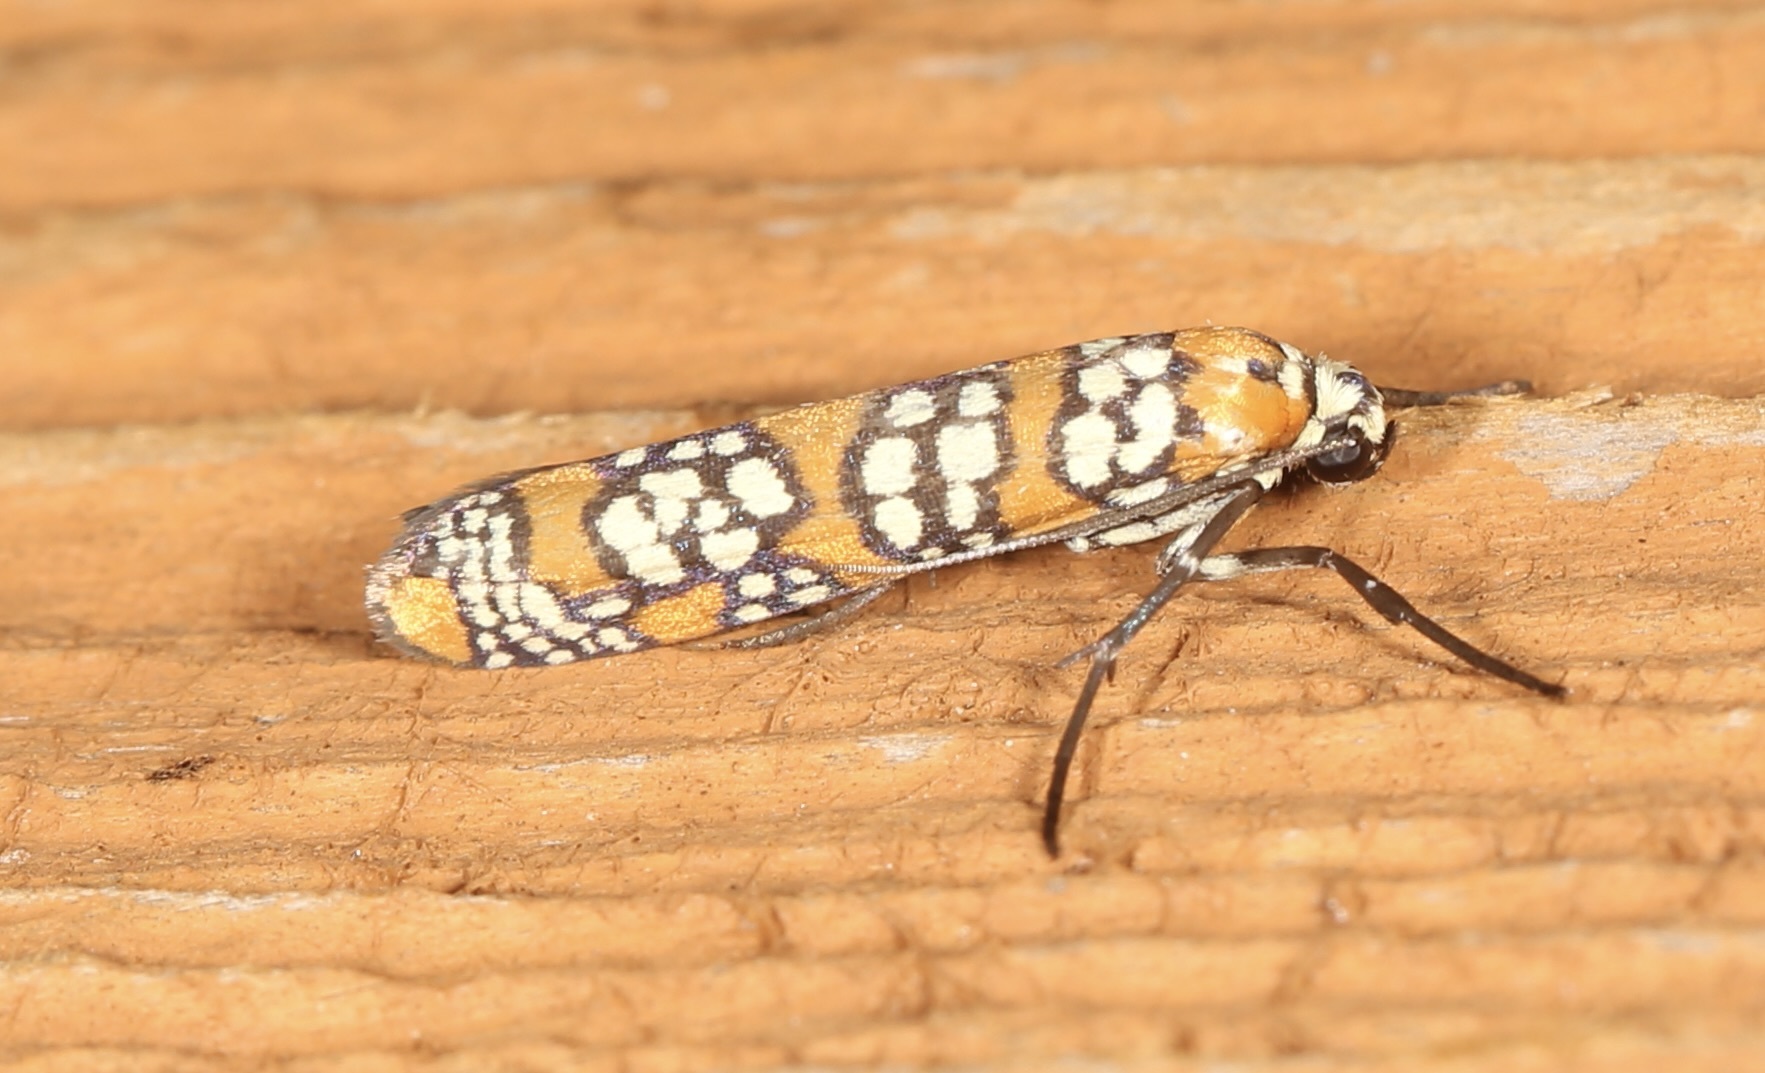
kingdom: Animalia
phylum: Arthropoda
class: Insecta
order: Lepidoptera
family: Attevidae
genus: Atteva
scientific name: Atteva punctella
